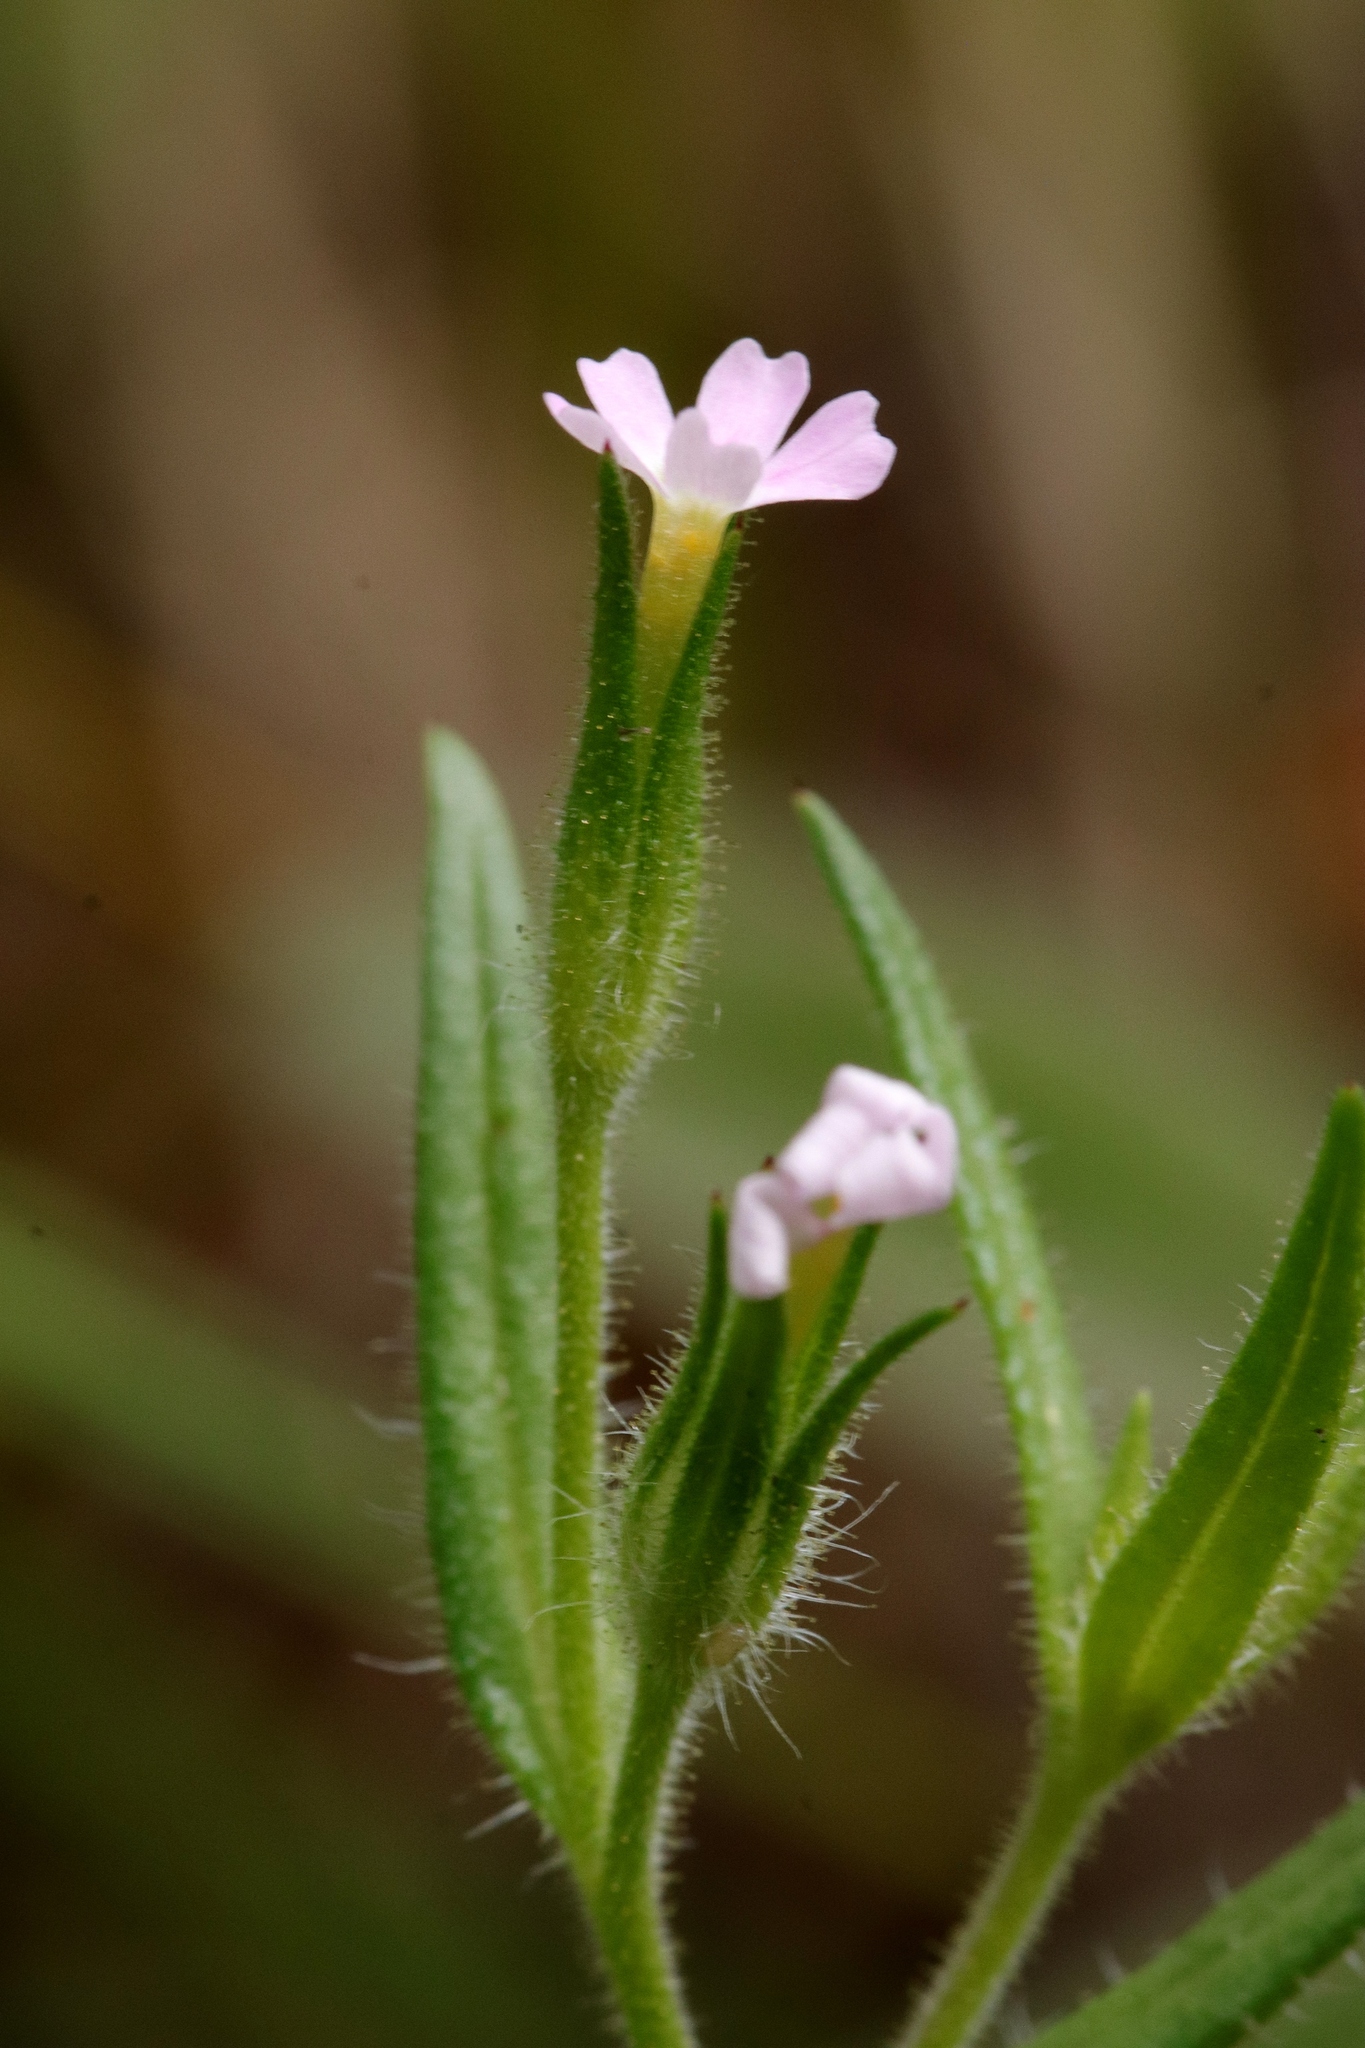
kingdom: Plantae
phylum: Tracheophyta
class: Magnoliopsida
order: Ericales
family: Polemoniaceae
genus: Phlox
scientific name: Phlox gracilis
